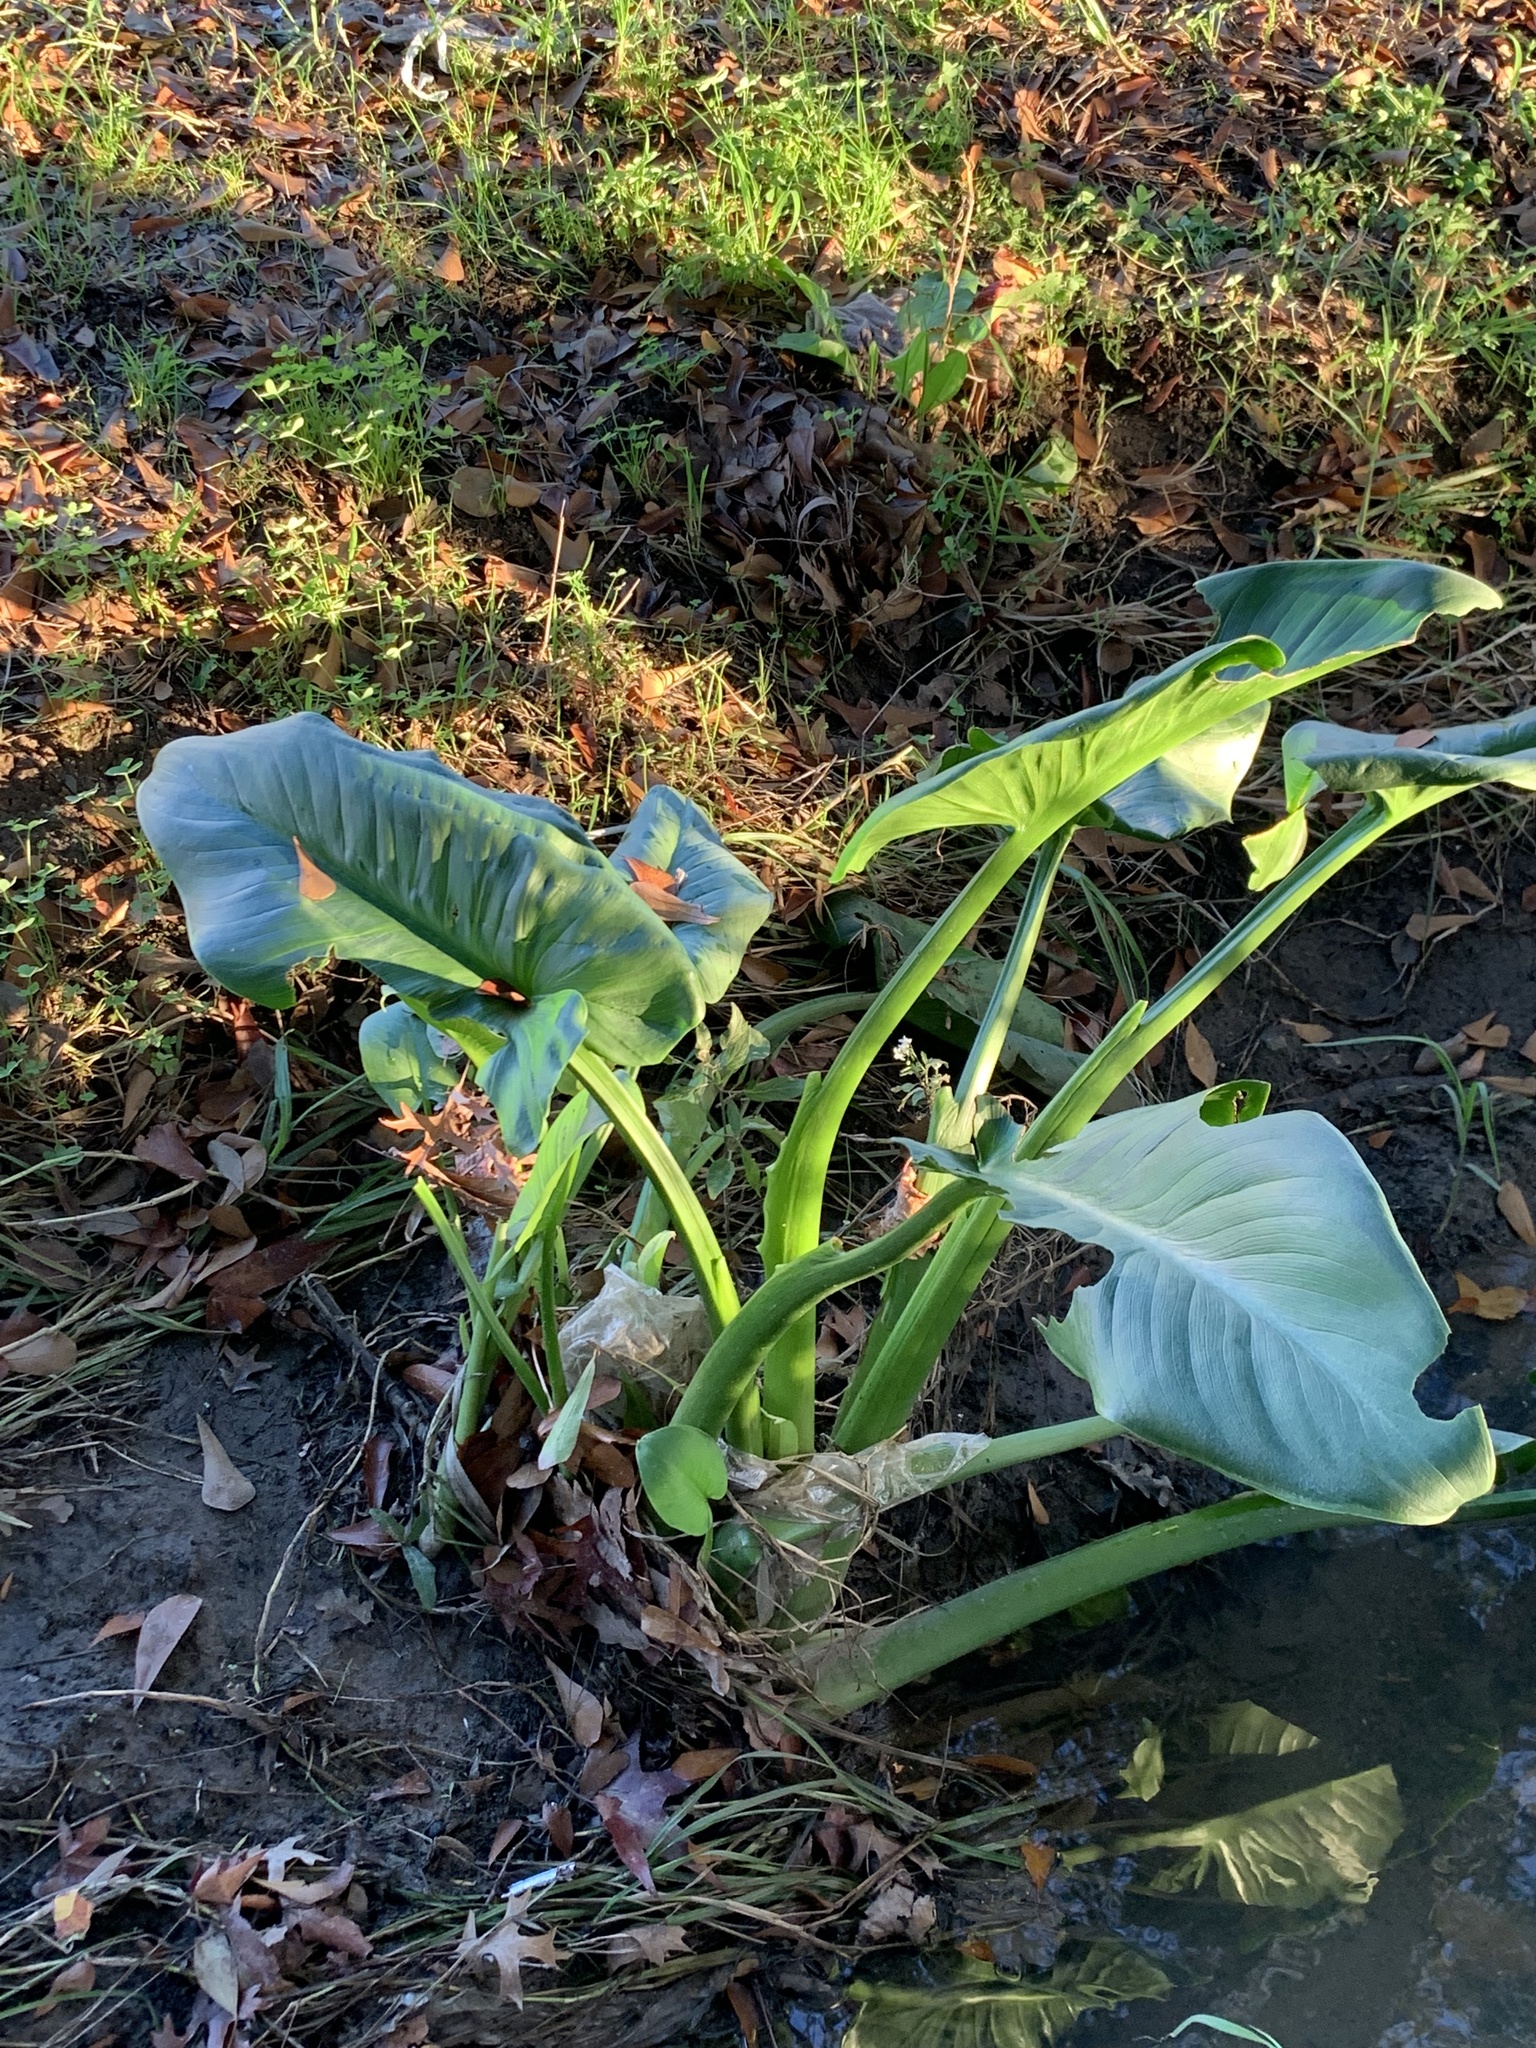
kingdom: Plantae
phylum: Tracheophyta
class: Liliopsida
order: Alismatales
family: Araceae
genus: Zantedeschia
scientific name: Zantedeschia aethiopica
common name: Altar-lily
